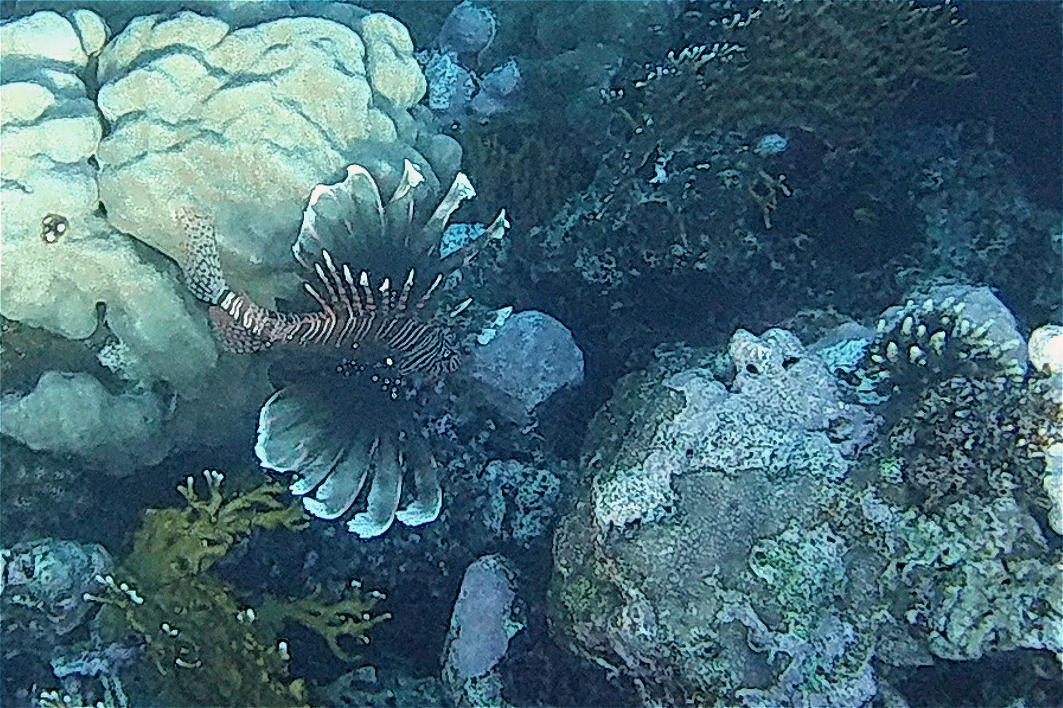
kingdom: Animalia
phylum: Chordata
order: Scorpaeniformes
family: Scorpaenidae
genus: Pterois
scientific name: Pterois miles
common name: Devil firefish
